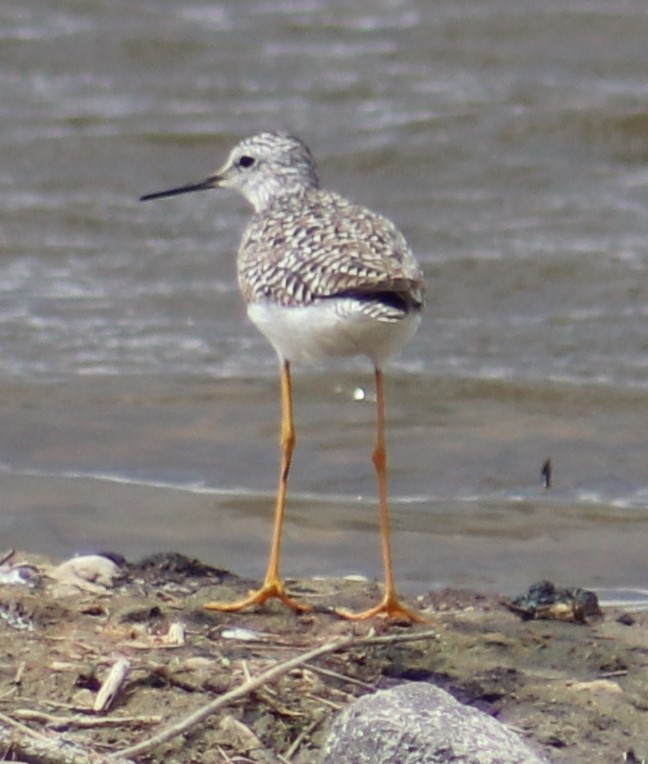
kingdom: Animalia
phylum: Chordata
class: Aves
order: Charadriiformes
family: Scolopacidae
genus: Tringa
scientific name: Tringa flavipes
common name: Lesser yellowlegs
